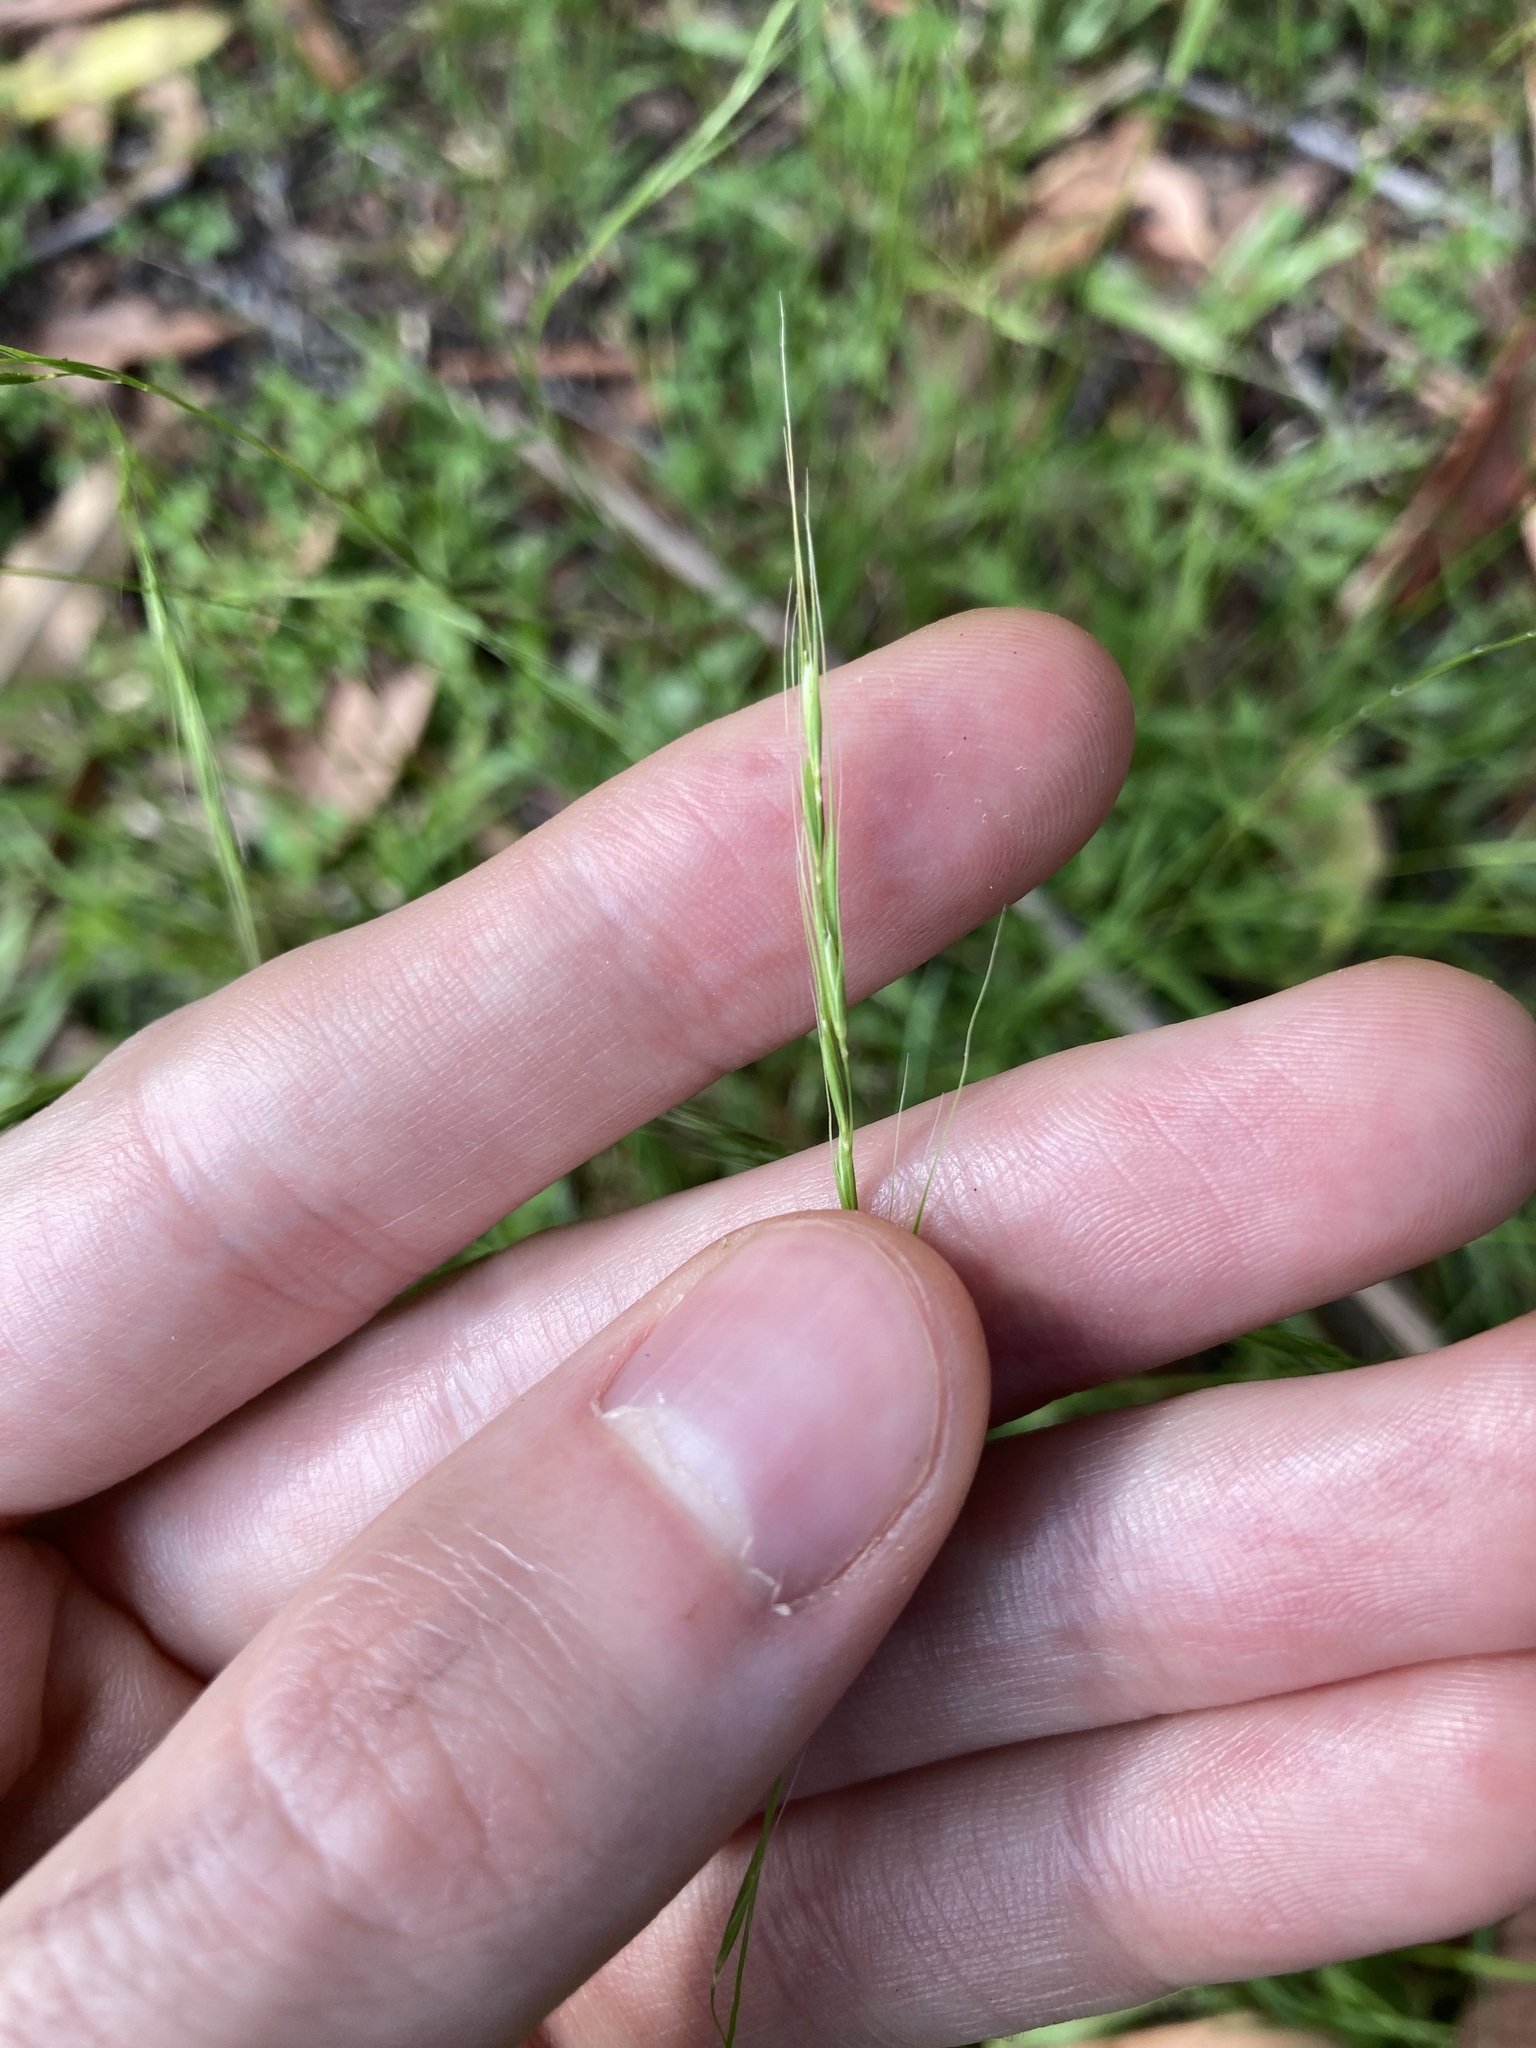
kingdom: Plantae
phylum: Tracheophyta
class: Liliopsida
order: Poales
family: Poaceae
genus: Microlaena
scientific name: Microlaena stipoides
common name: Meadow ricegrass
